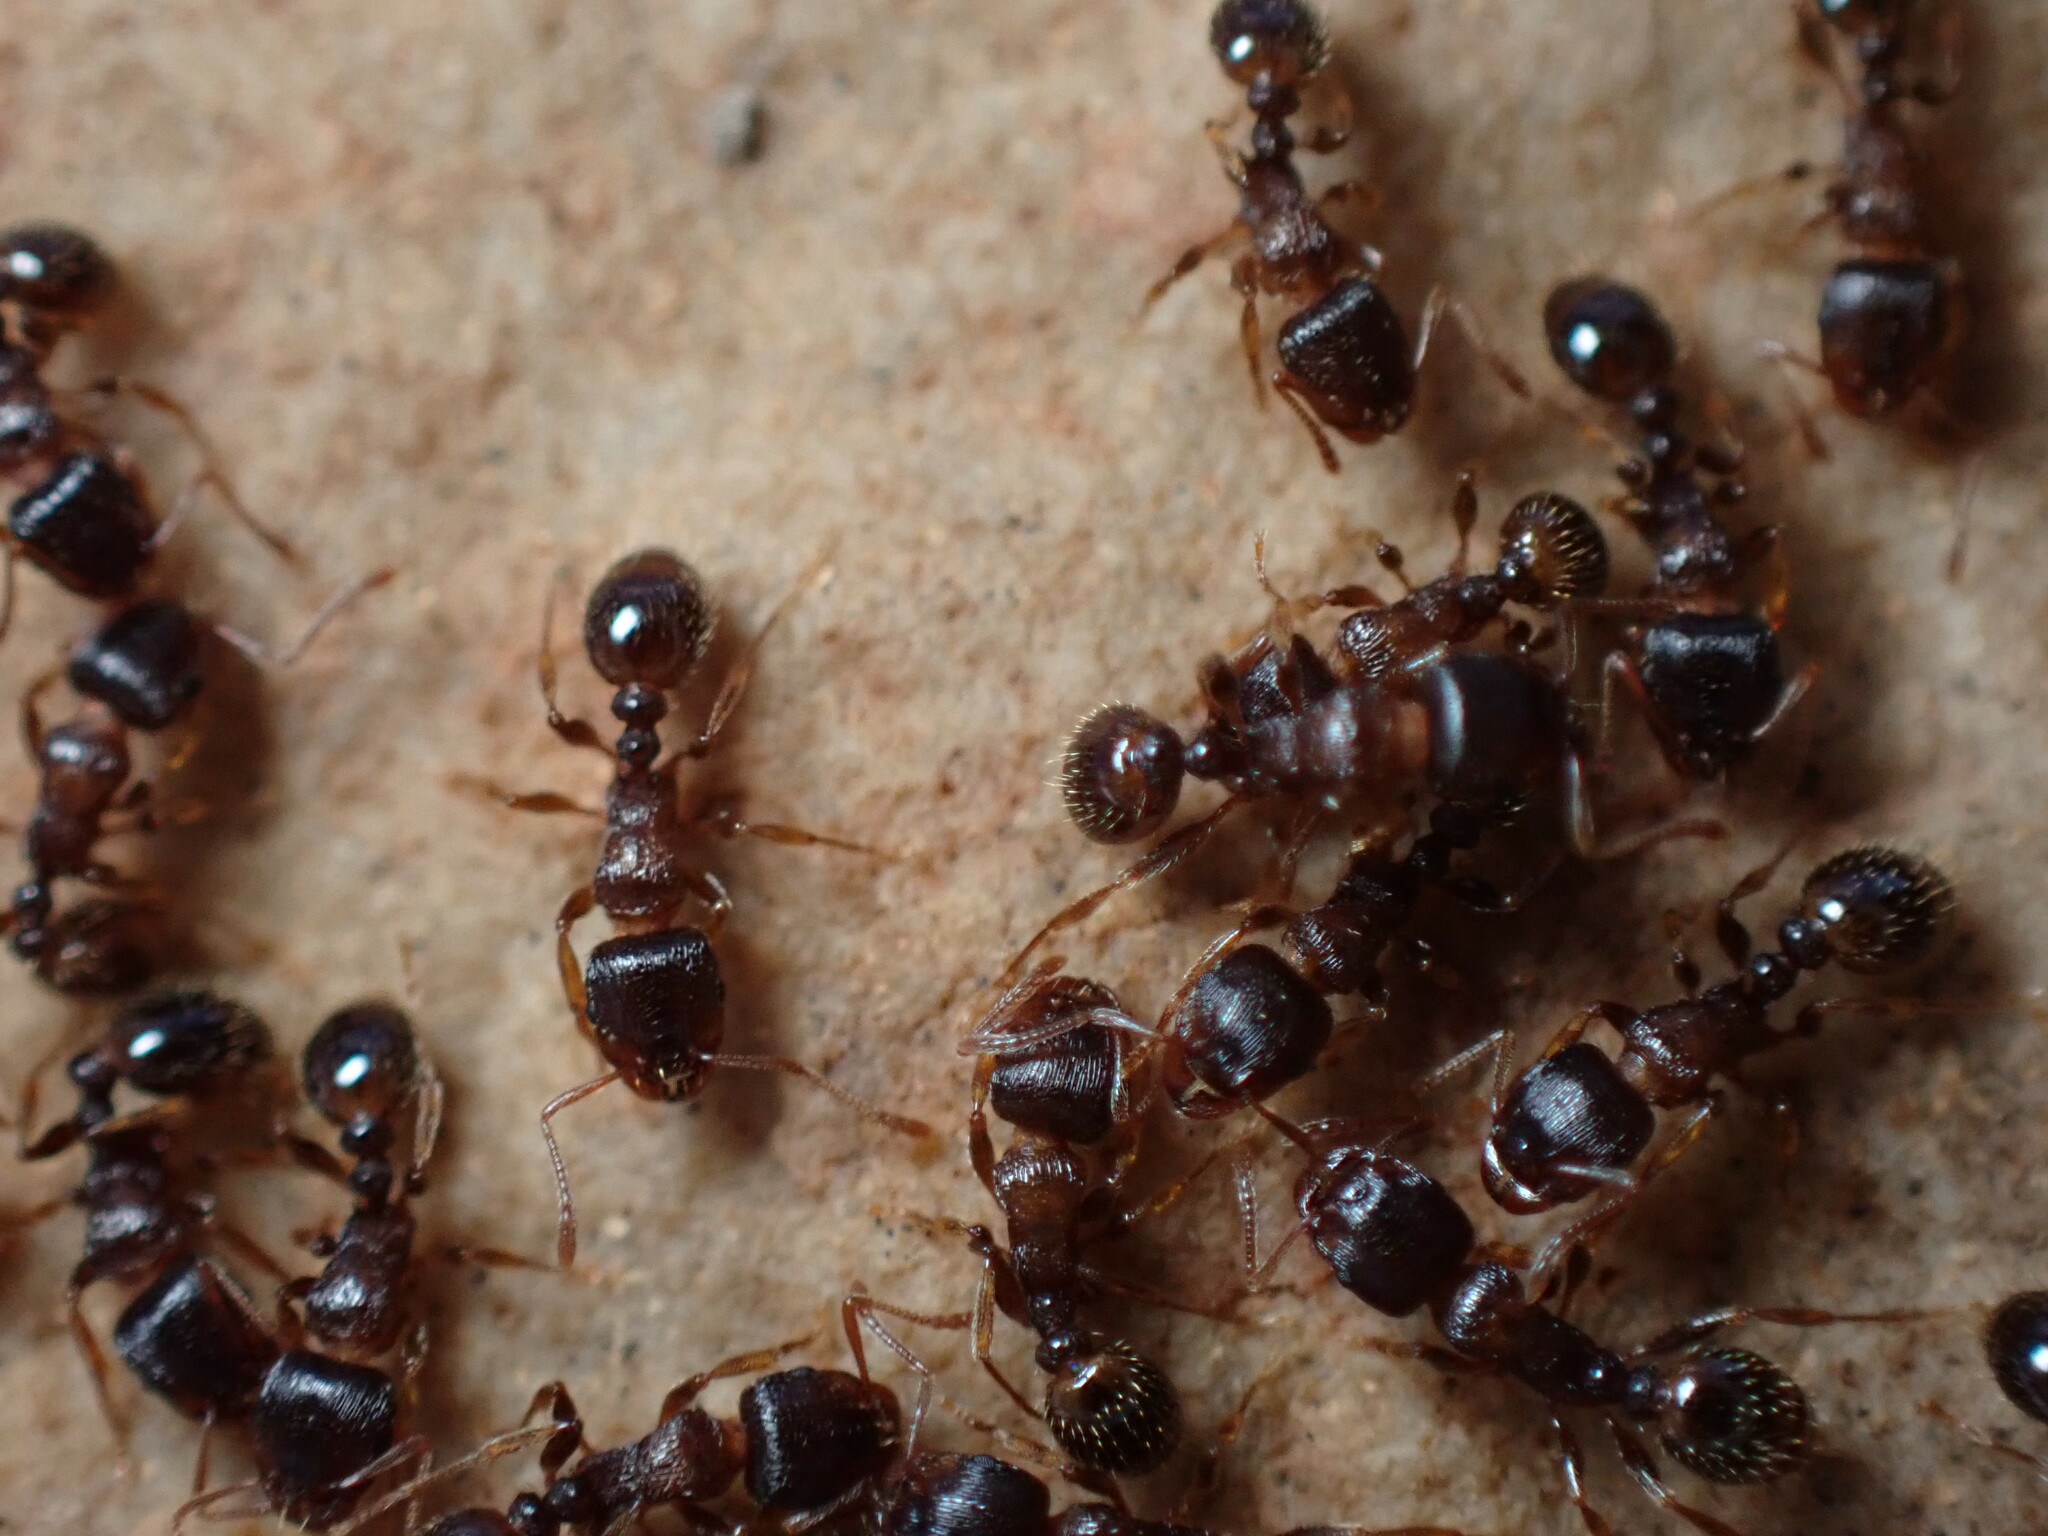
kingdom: Animalia
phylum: Arthropoda
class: Insecta
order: Hymenoptera
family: Formicidae
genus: Tetramorium
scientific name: Tetramorium immigrans
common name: Pavement ant
